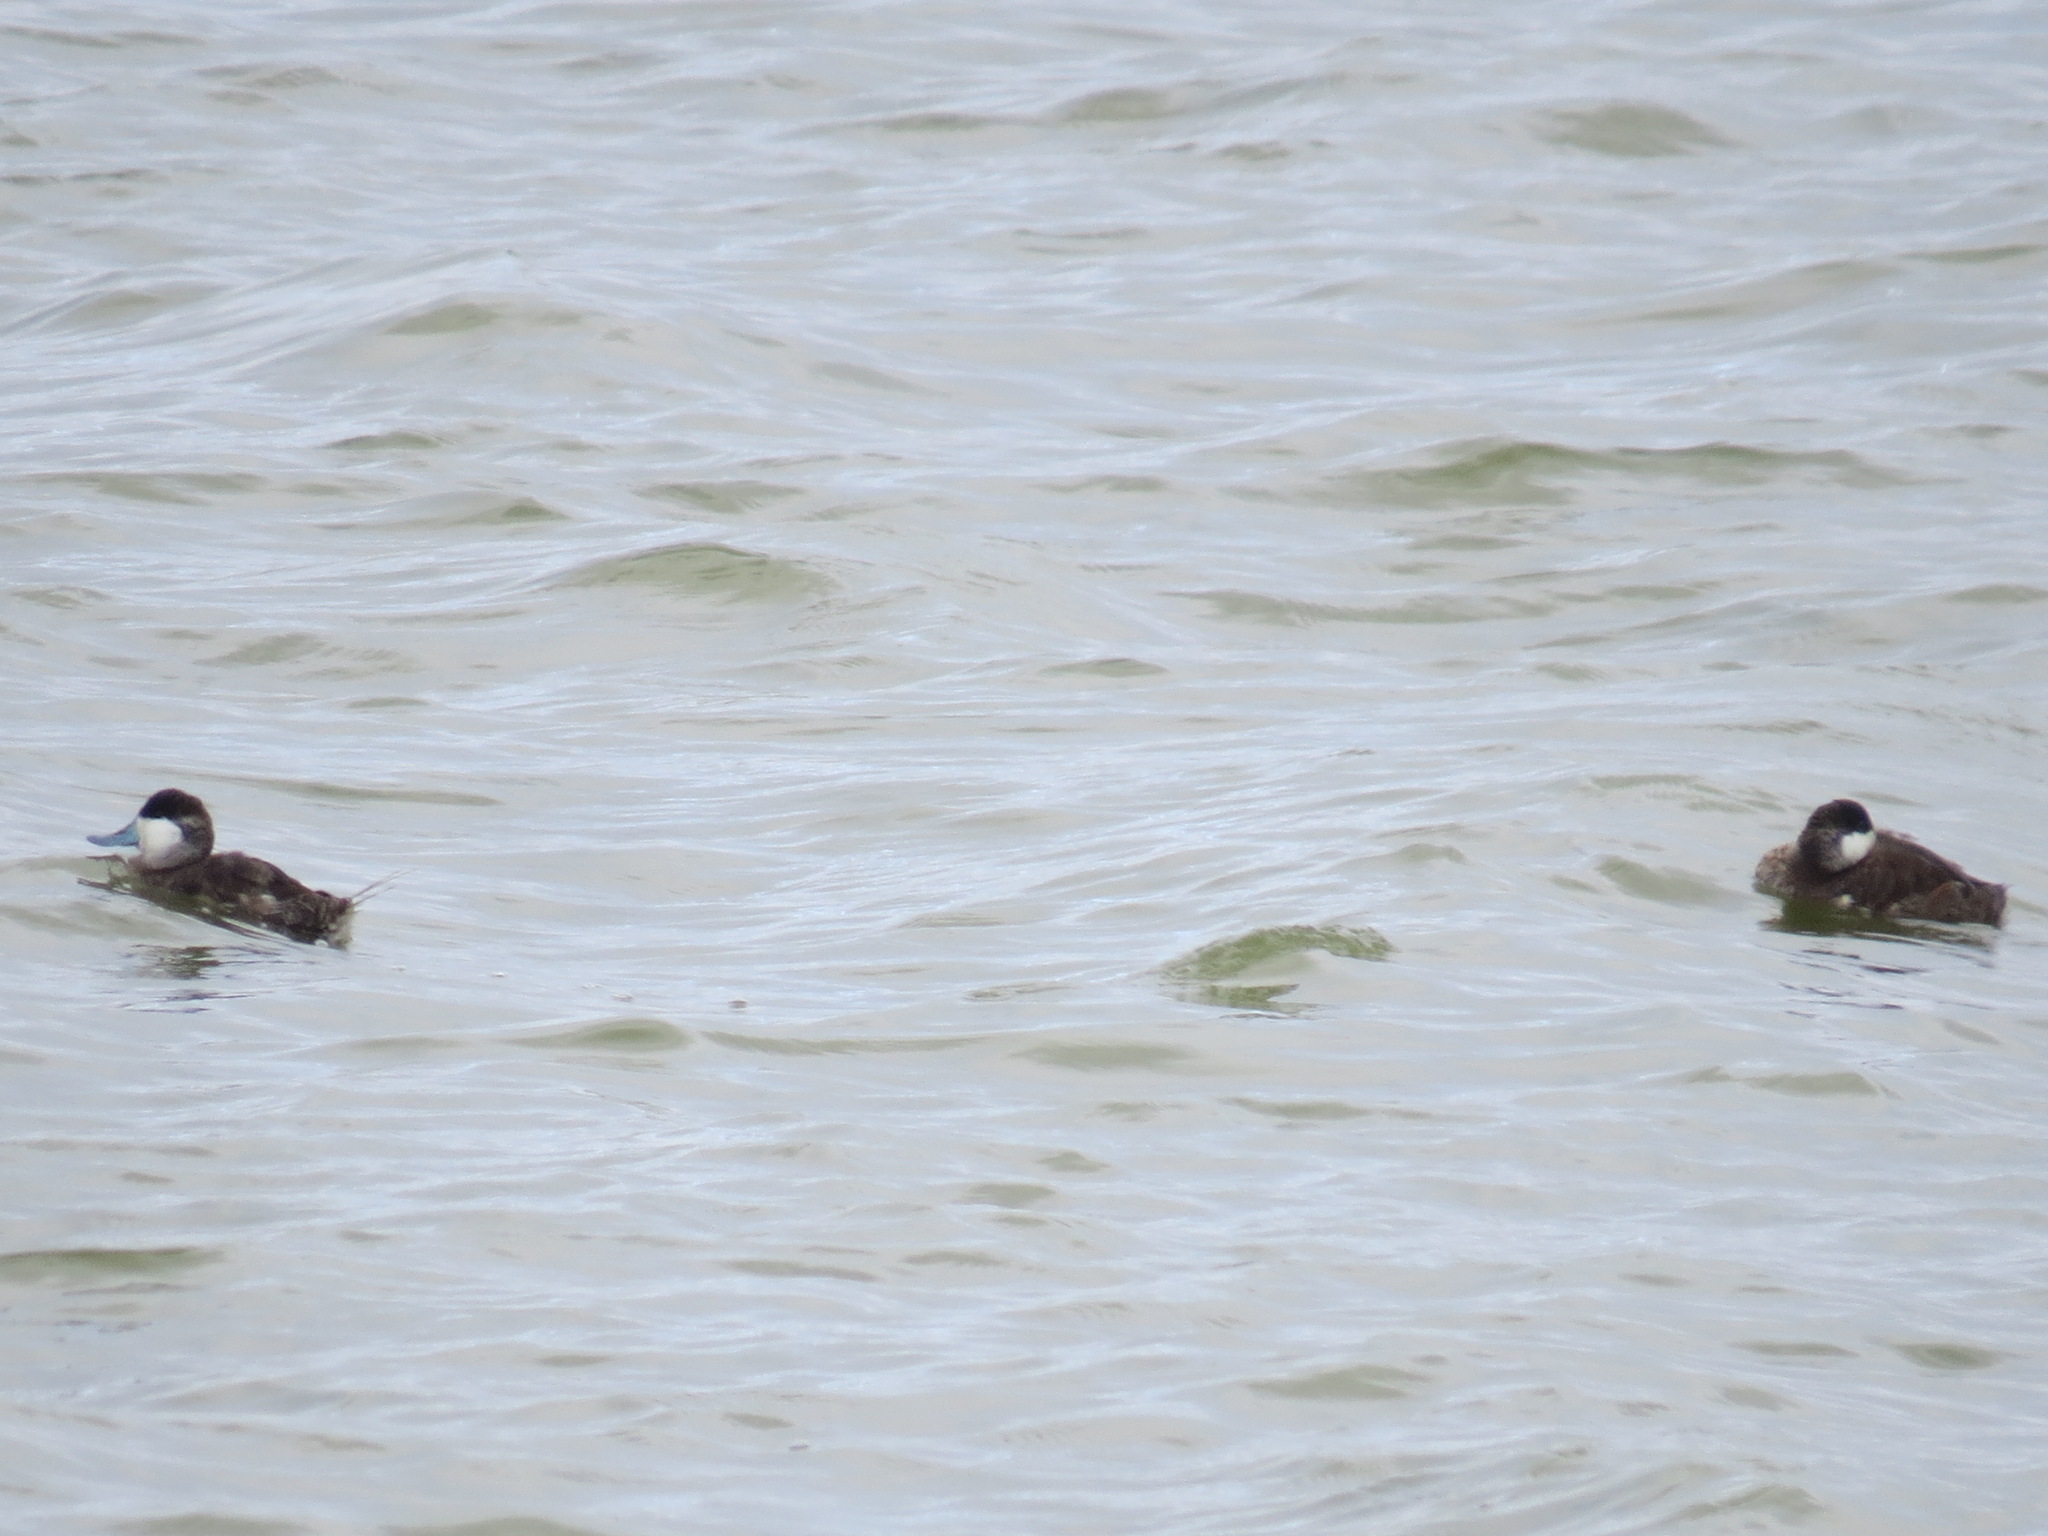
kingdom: Animalia
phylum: Chordata
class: Aves
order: Anseriformes
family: Anatidae
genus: Oxyura
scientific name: Oxyura jamaicensis
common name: Ruddy duck
